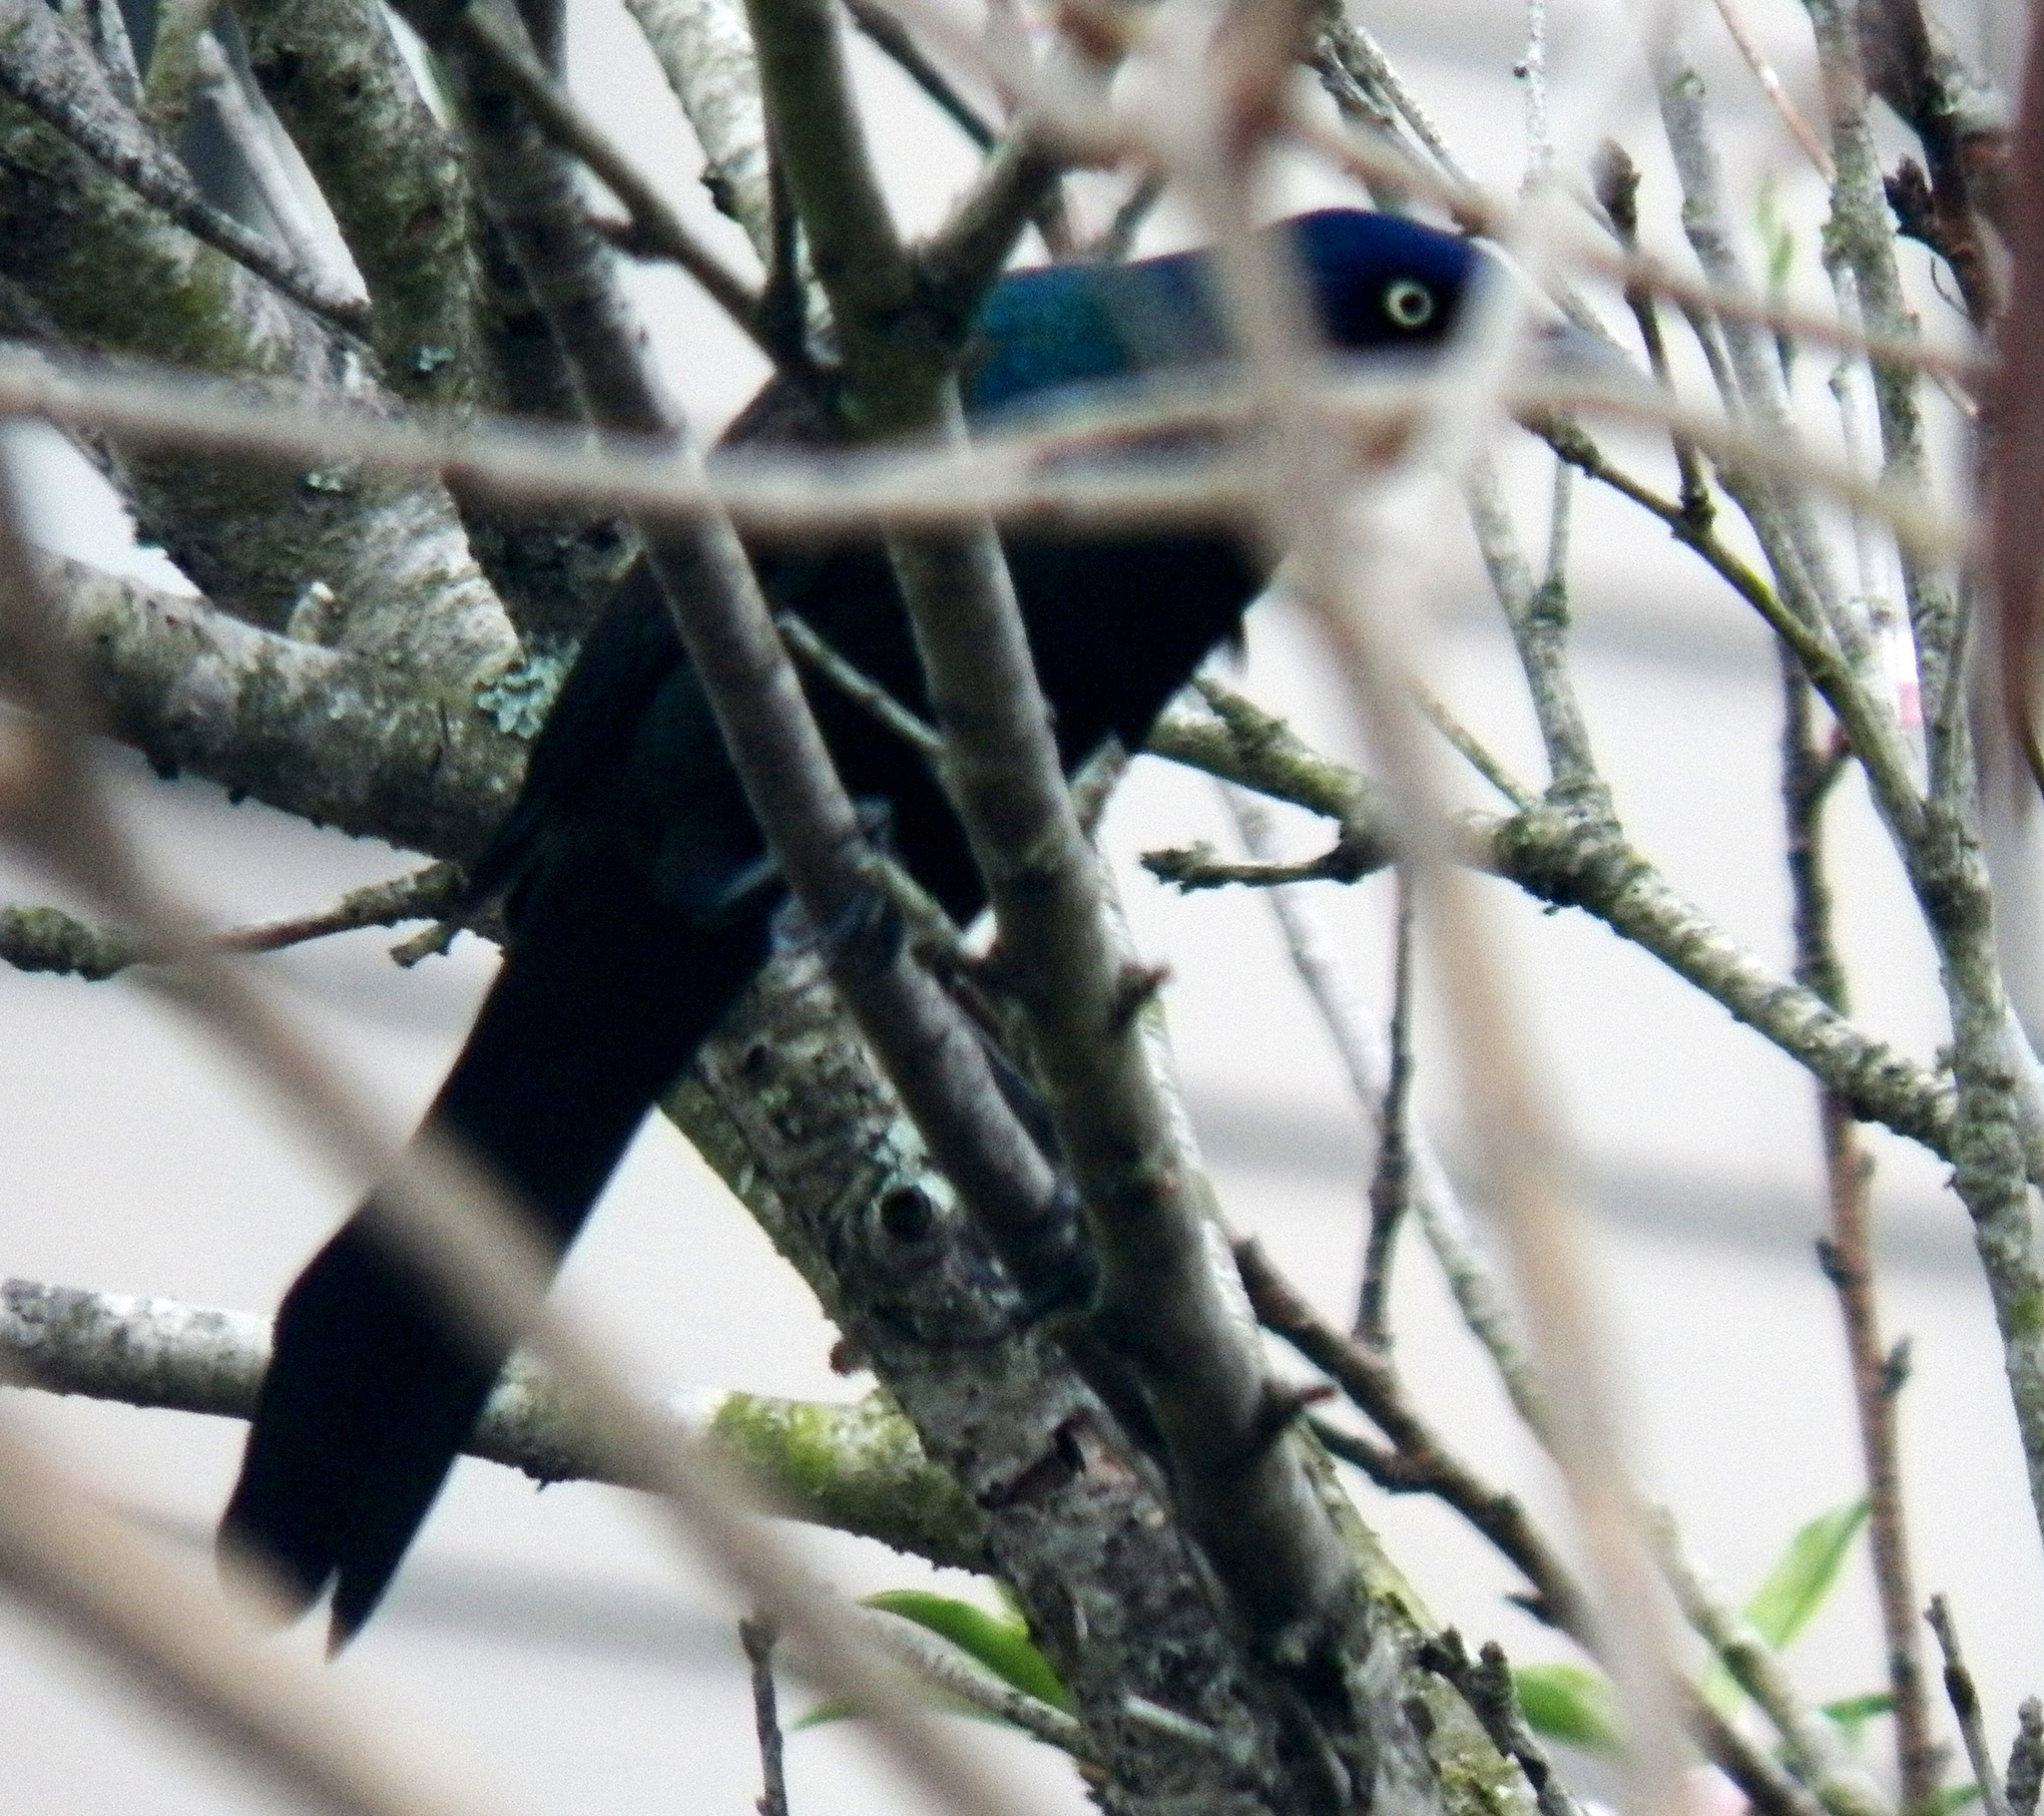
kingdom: Animalia
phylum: Chordata
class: Aves
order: Passeriformes
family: Icteridae
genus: Quiscalus
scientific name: Quiscalus quiscula
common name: Common grackle
